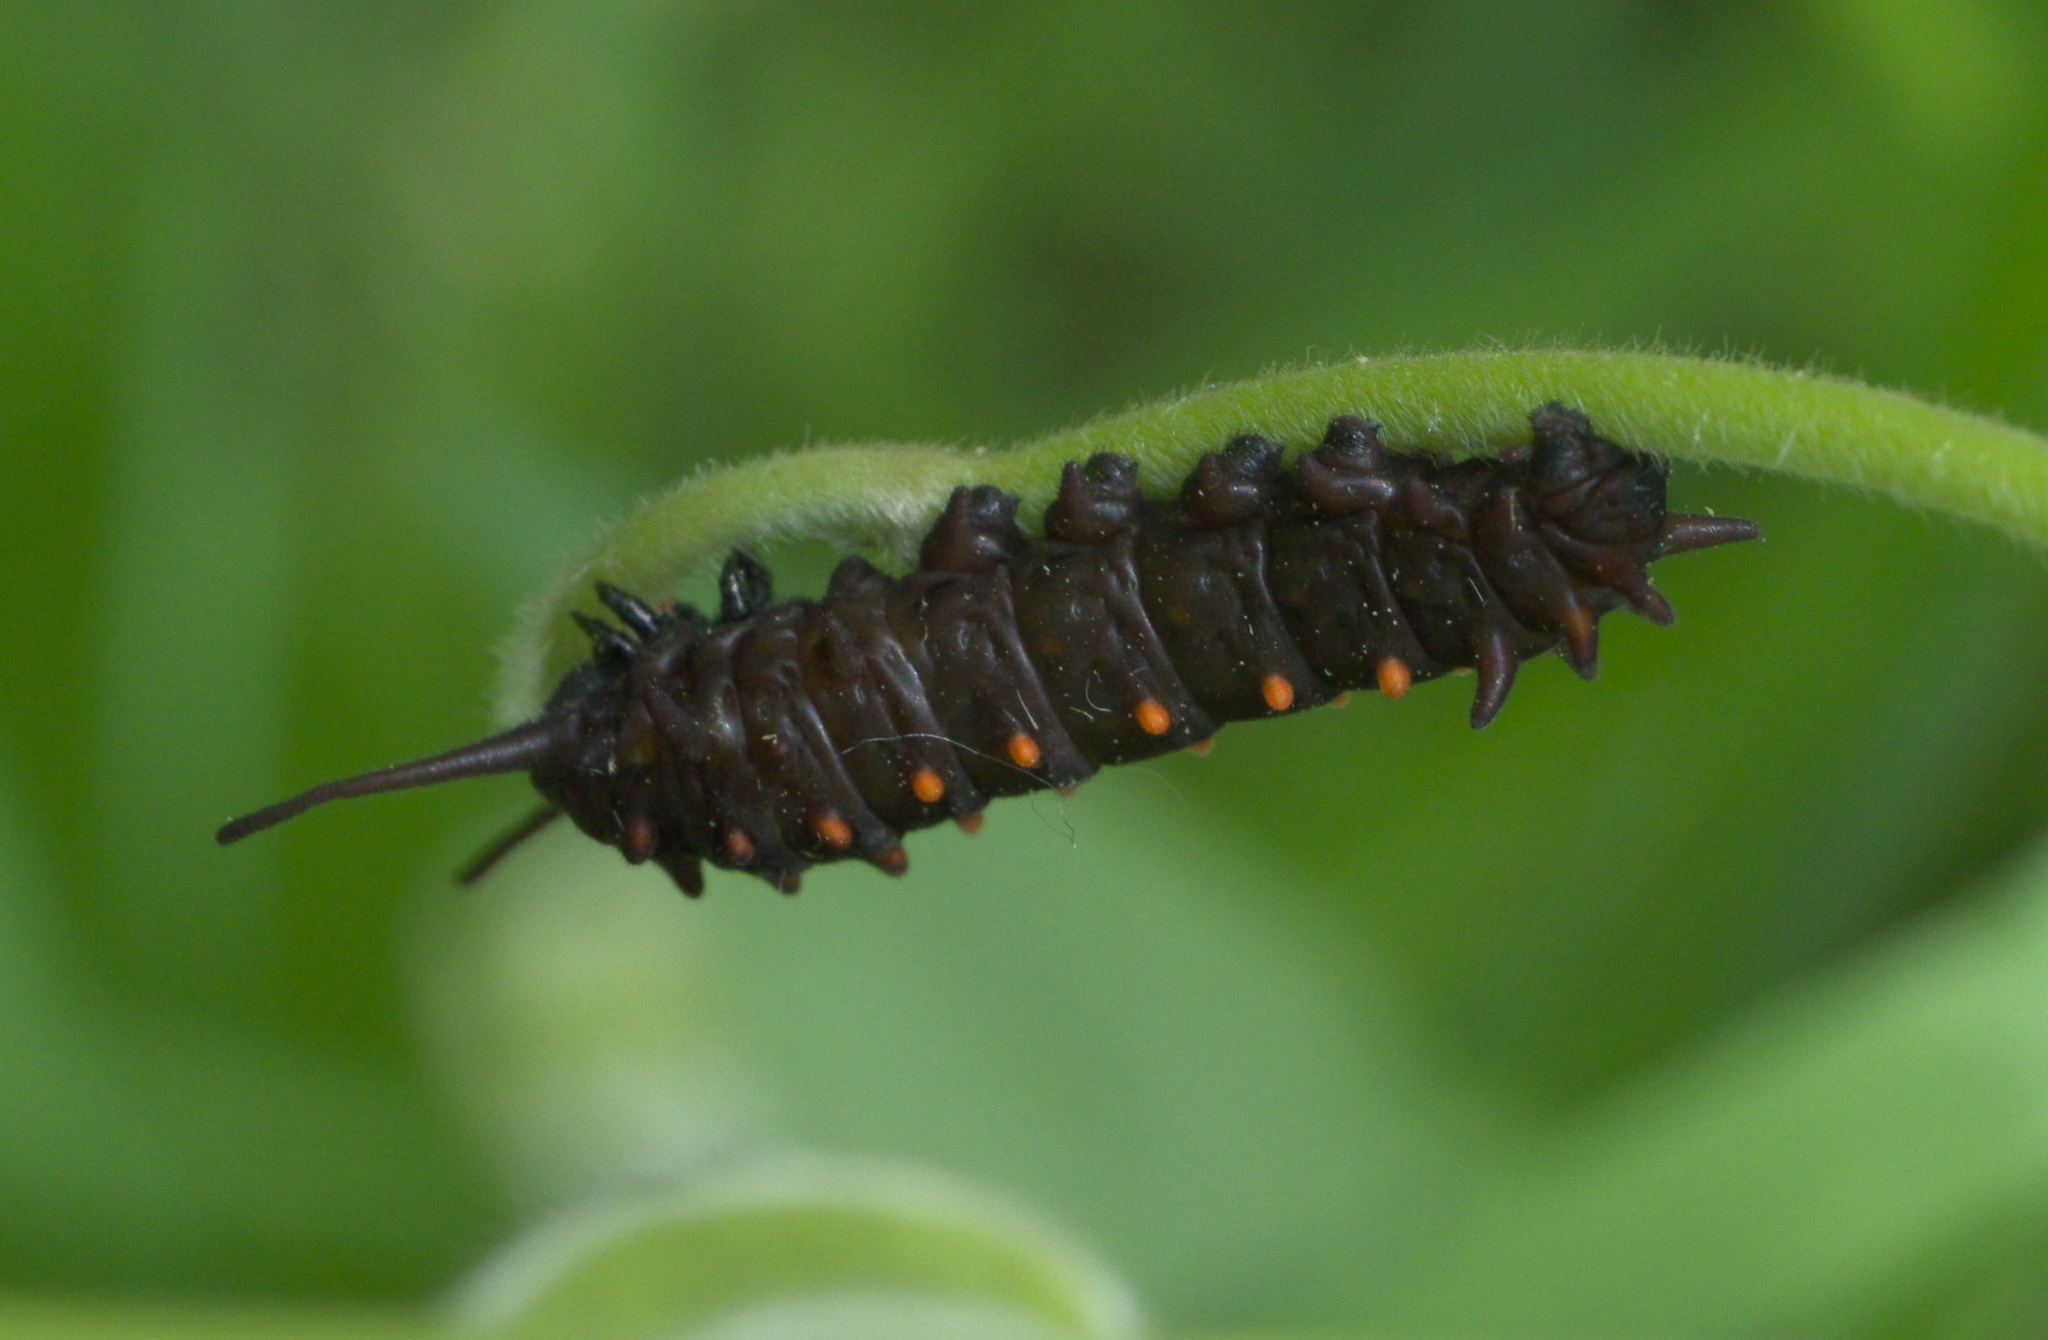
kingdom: Animalia
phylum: Arthropoda
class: Insecta
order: Lepidoptera
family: Papilionidae
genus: Battus
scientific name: Battus philenor
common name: Pipevine swallowtail
